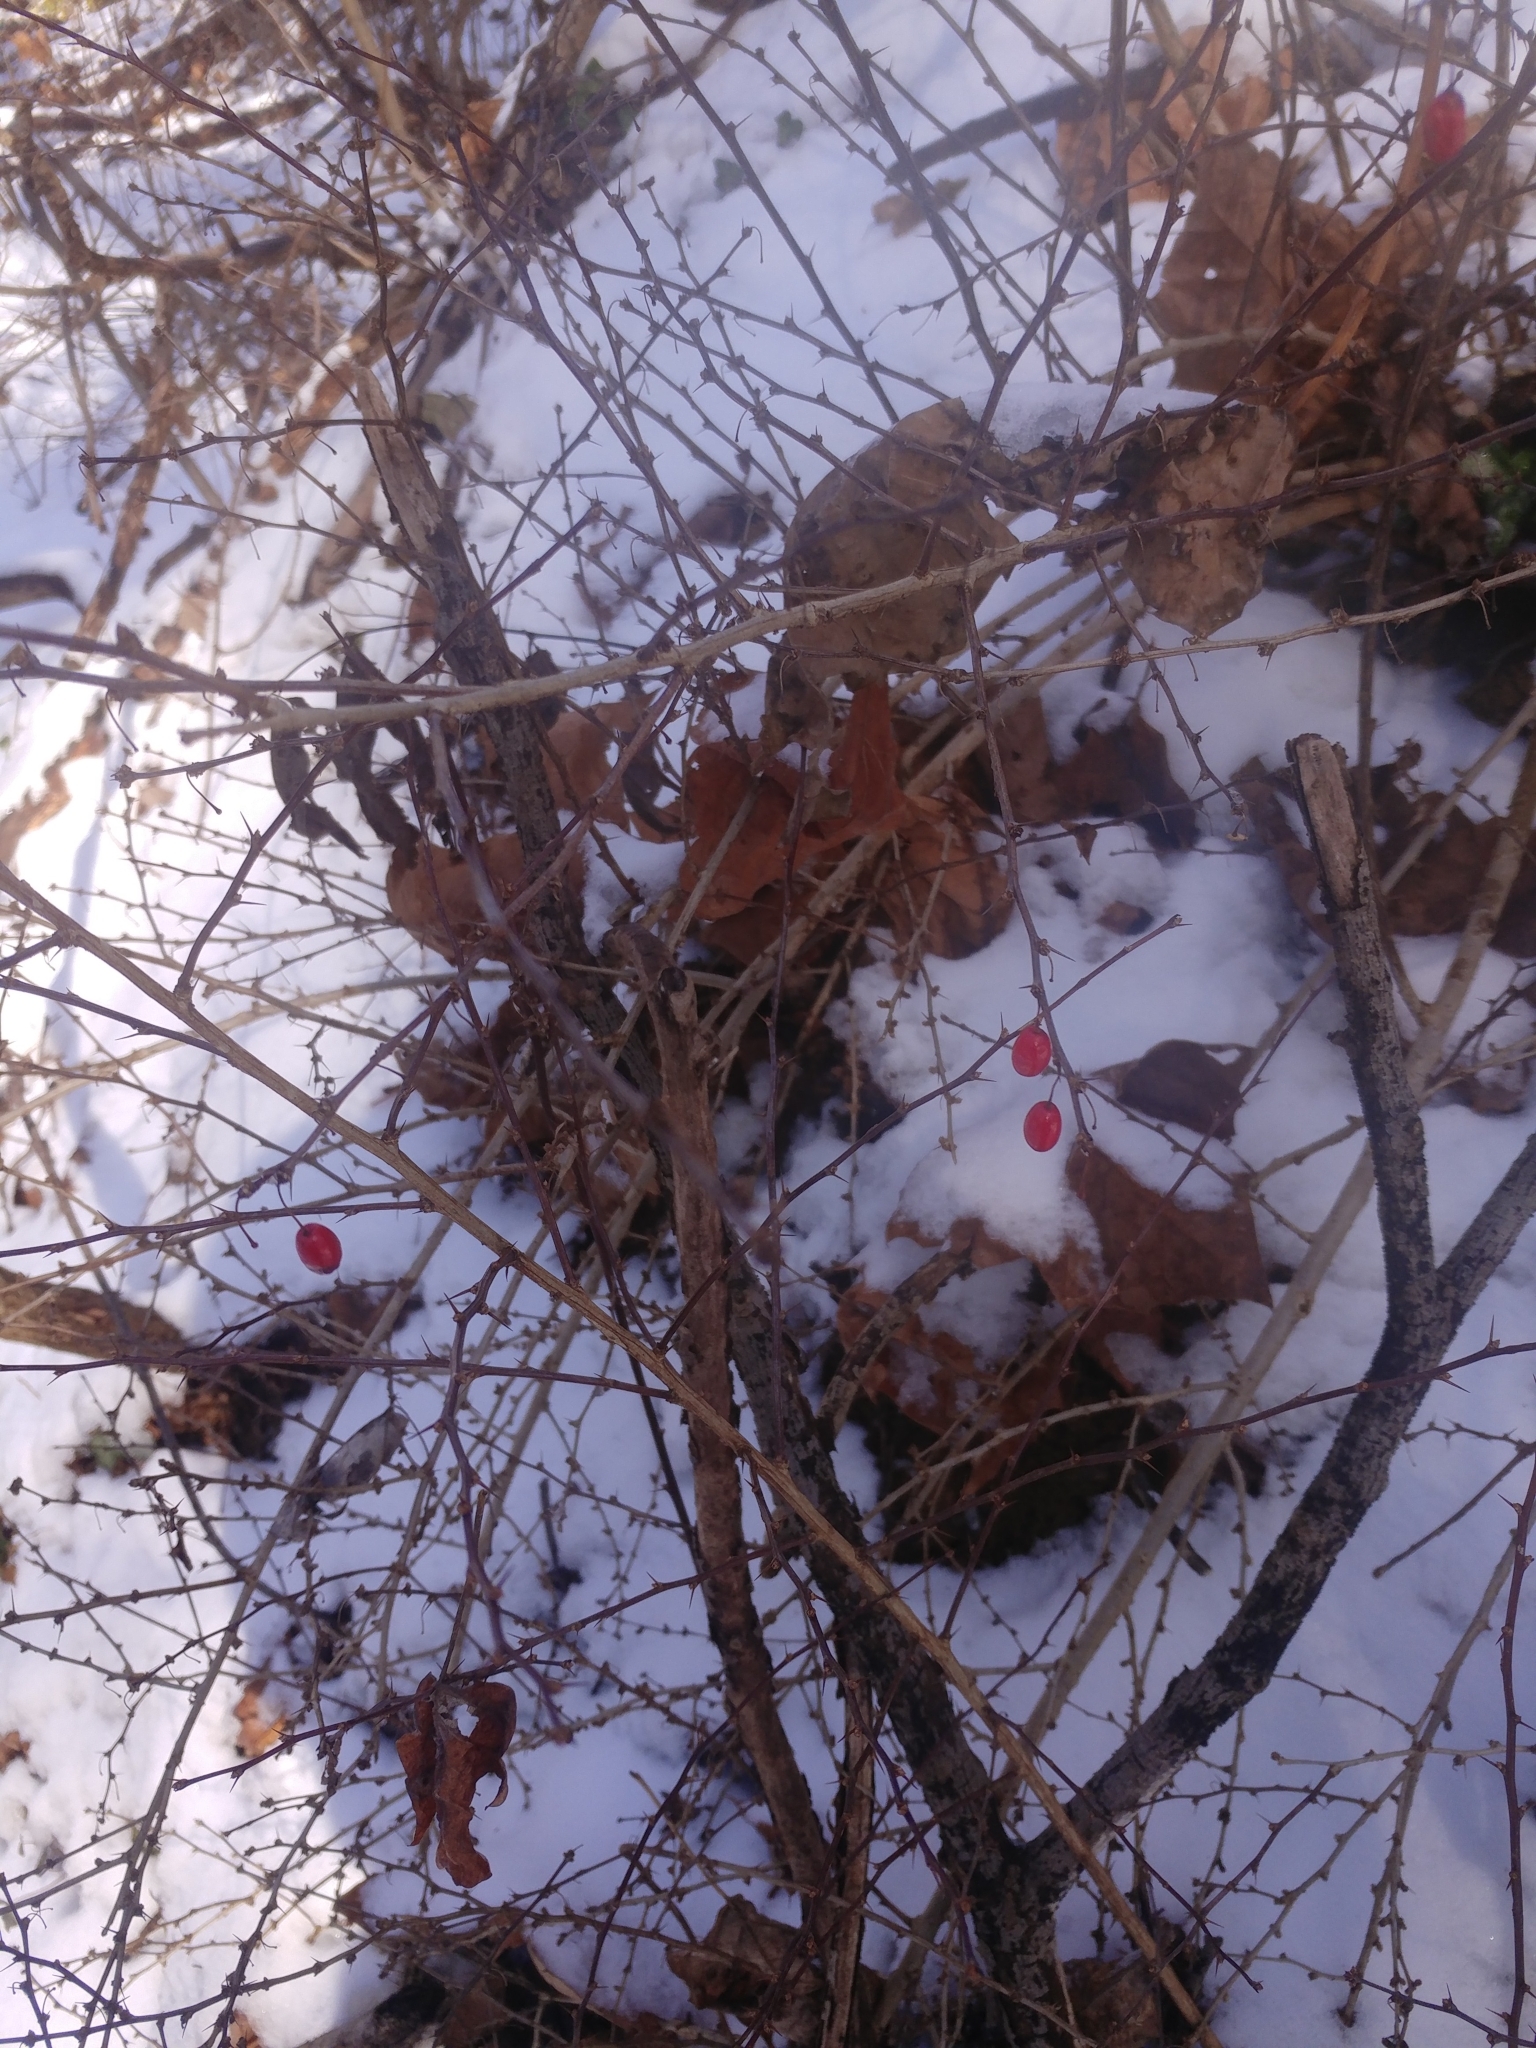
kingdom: Plantae
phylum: Tracheophyta
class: Magnoliopsida
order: Ranunculales
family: Berberidaceae
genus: Berberis
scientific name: Berberis thunbergii
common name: Japanese barberry
